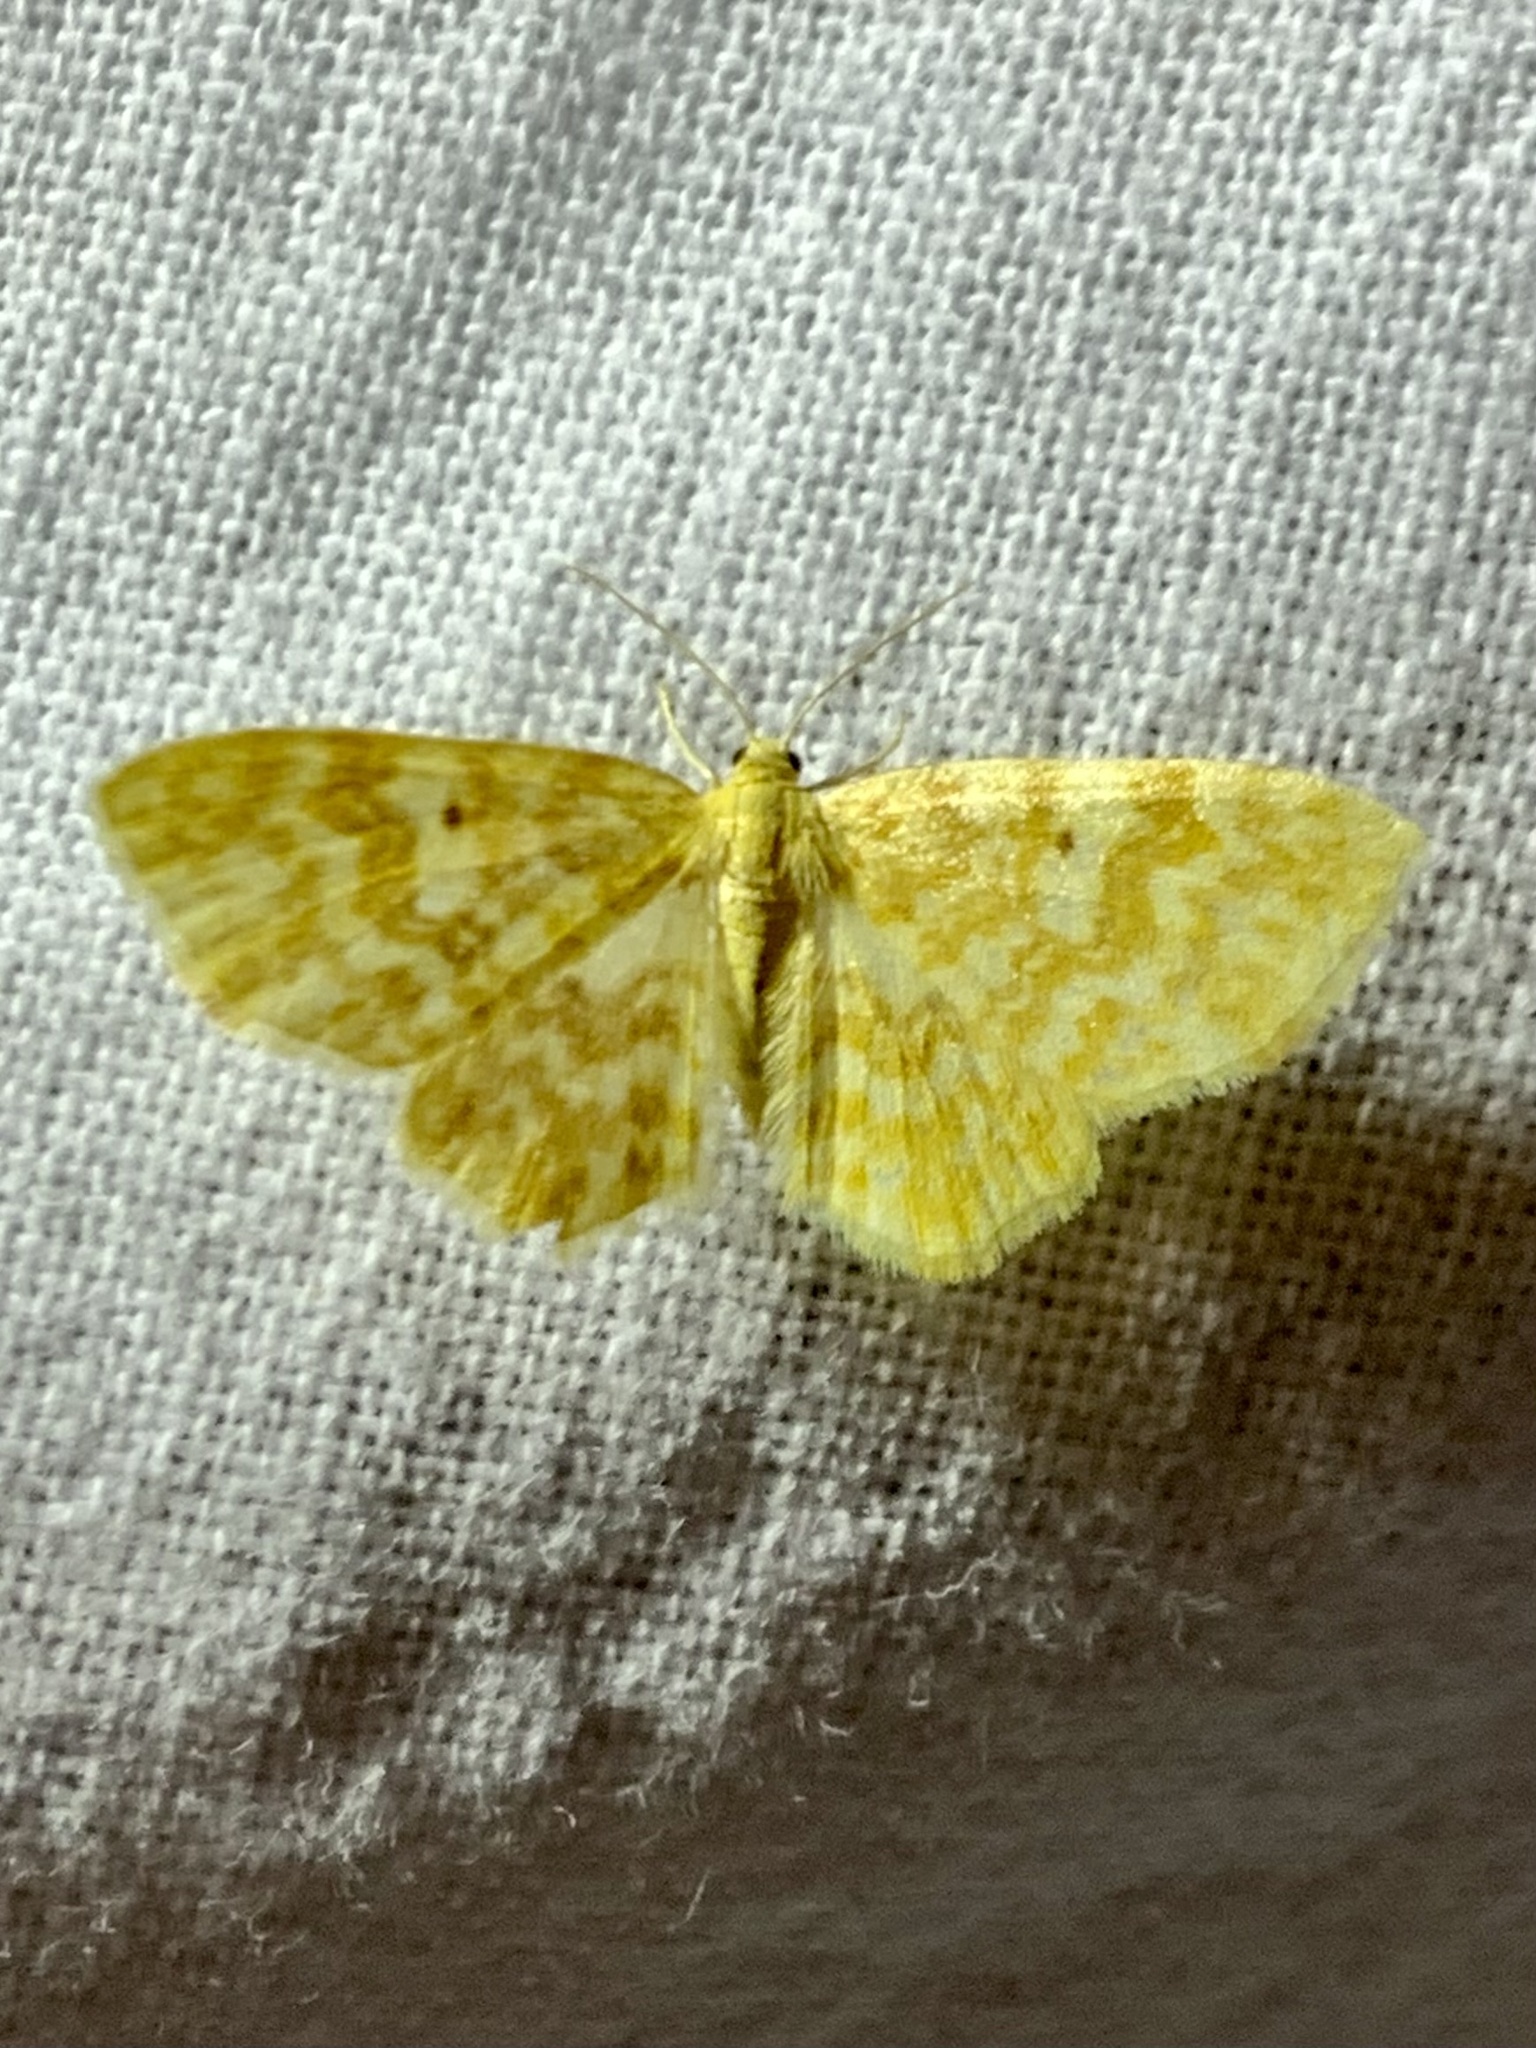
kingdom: Animalia
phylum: Arthropoda
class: Insecta
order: Lepidoptera
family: Geometridae
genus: Hydrelia
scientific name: Hydrelia flammeolaria
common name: Small yellow wave
